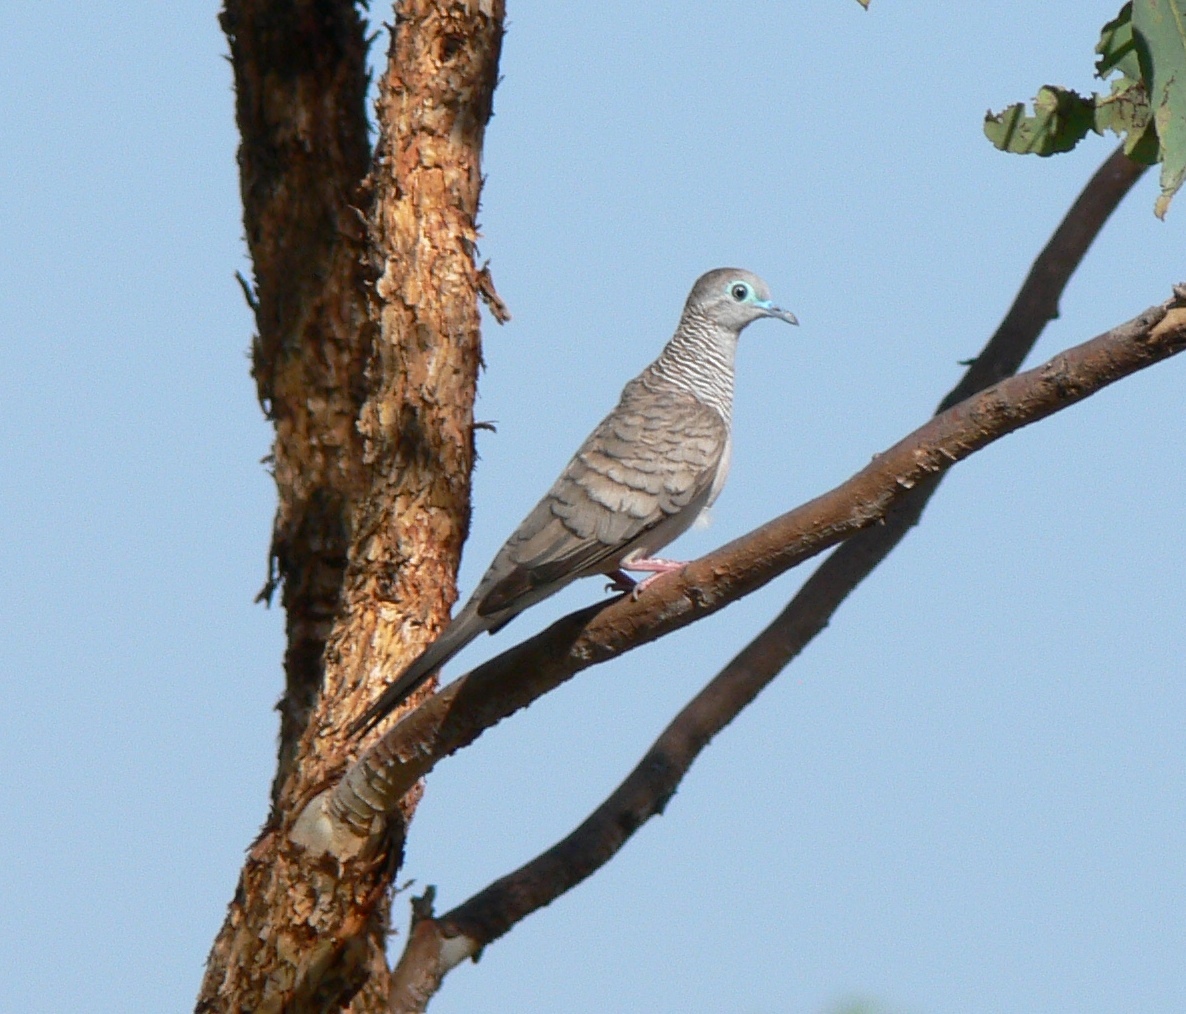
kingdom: Animalia
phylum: Chordata
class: Aves
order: Columbiformes
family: Columbidae
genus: Geopelia
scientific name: Geopelia placida
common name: Peaceful dove
